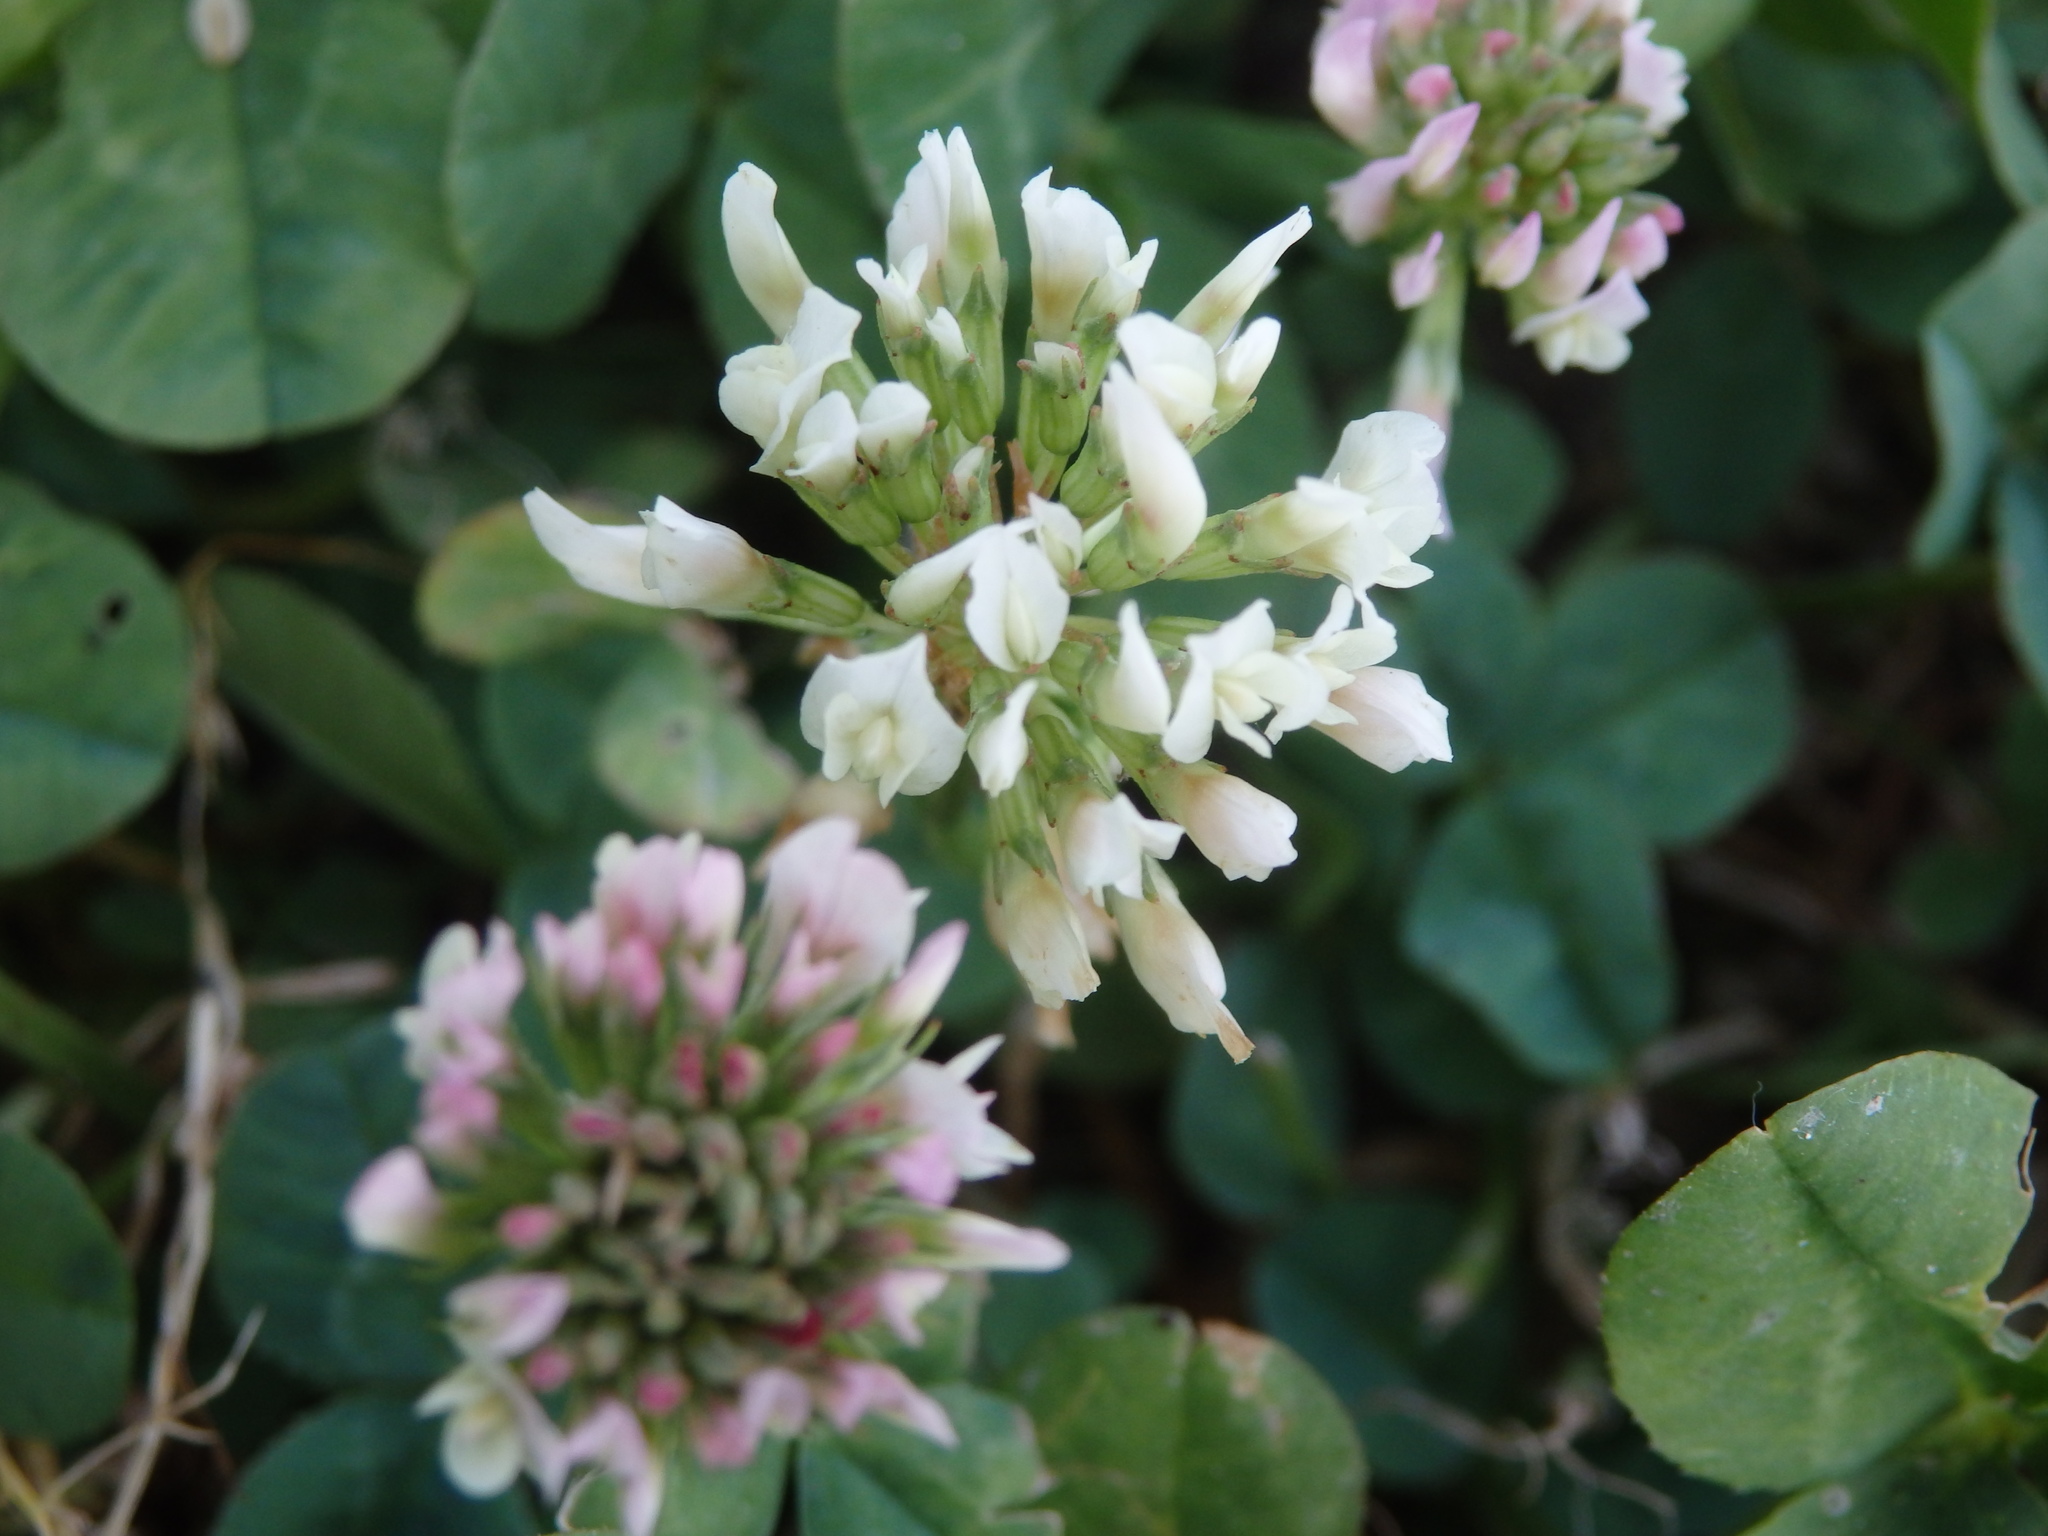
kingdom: Plantae
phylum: Tracheophyta
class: Magnoliopsida
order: Fabales
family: Fabaceae
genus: Trifolium
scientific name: Trifolium repens
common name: White clover
